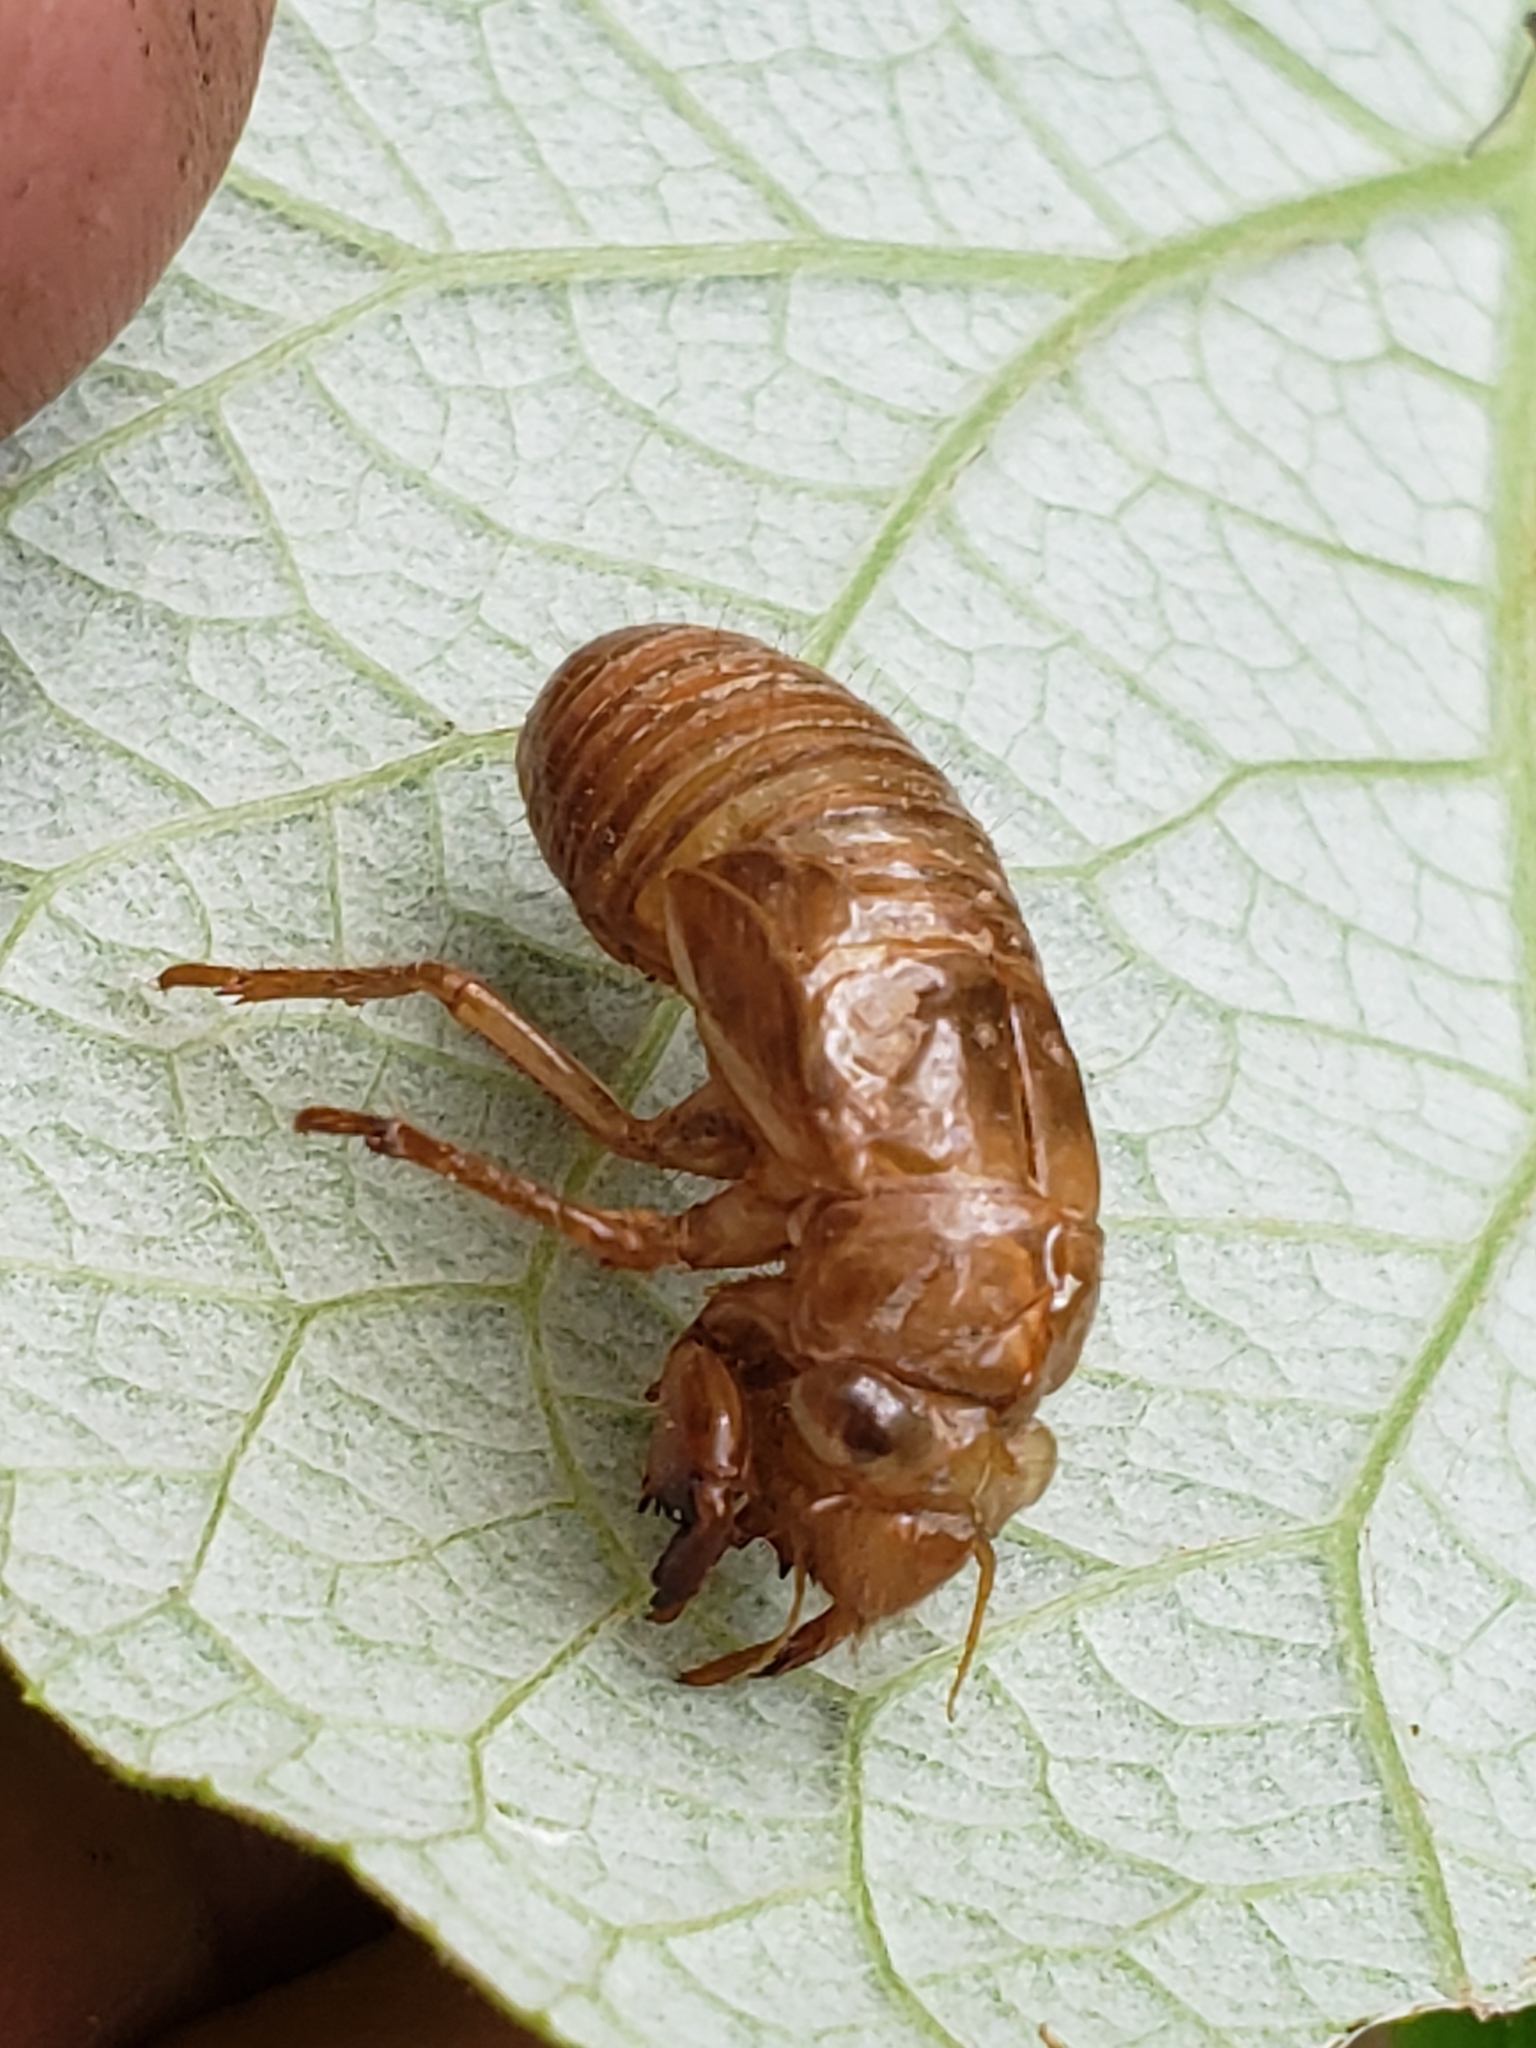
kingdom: Animalia
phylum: Arthropoda
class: Insecta
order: Hemiptera
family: Cicadidae
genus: Magicicada
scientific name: Magicicada
